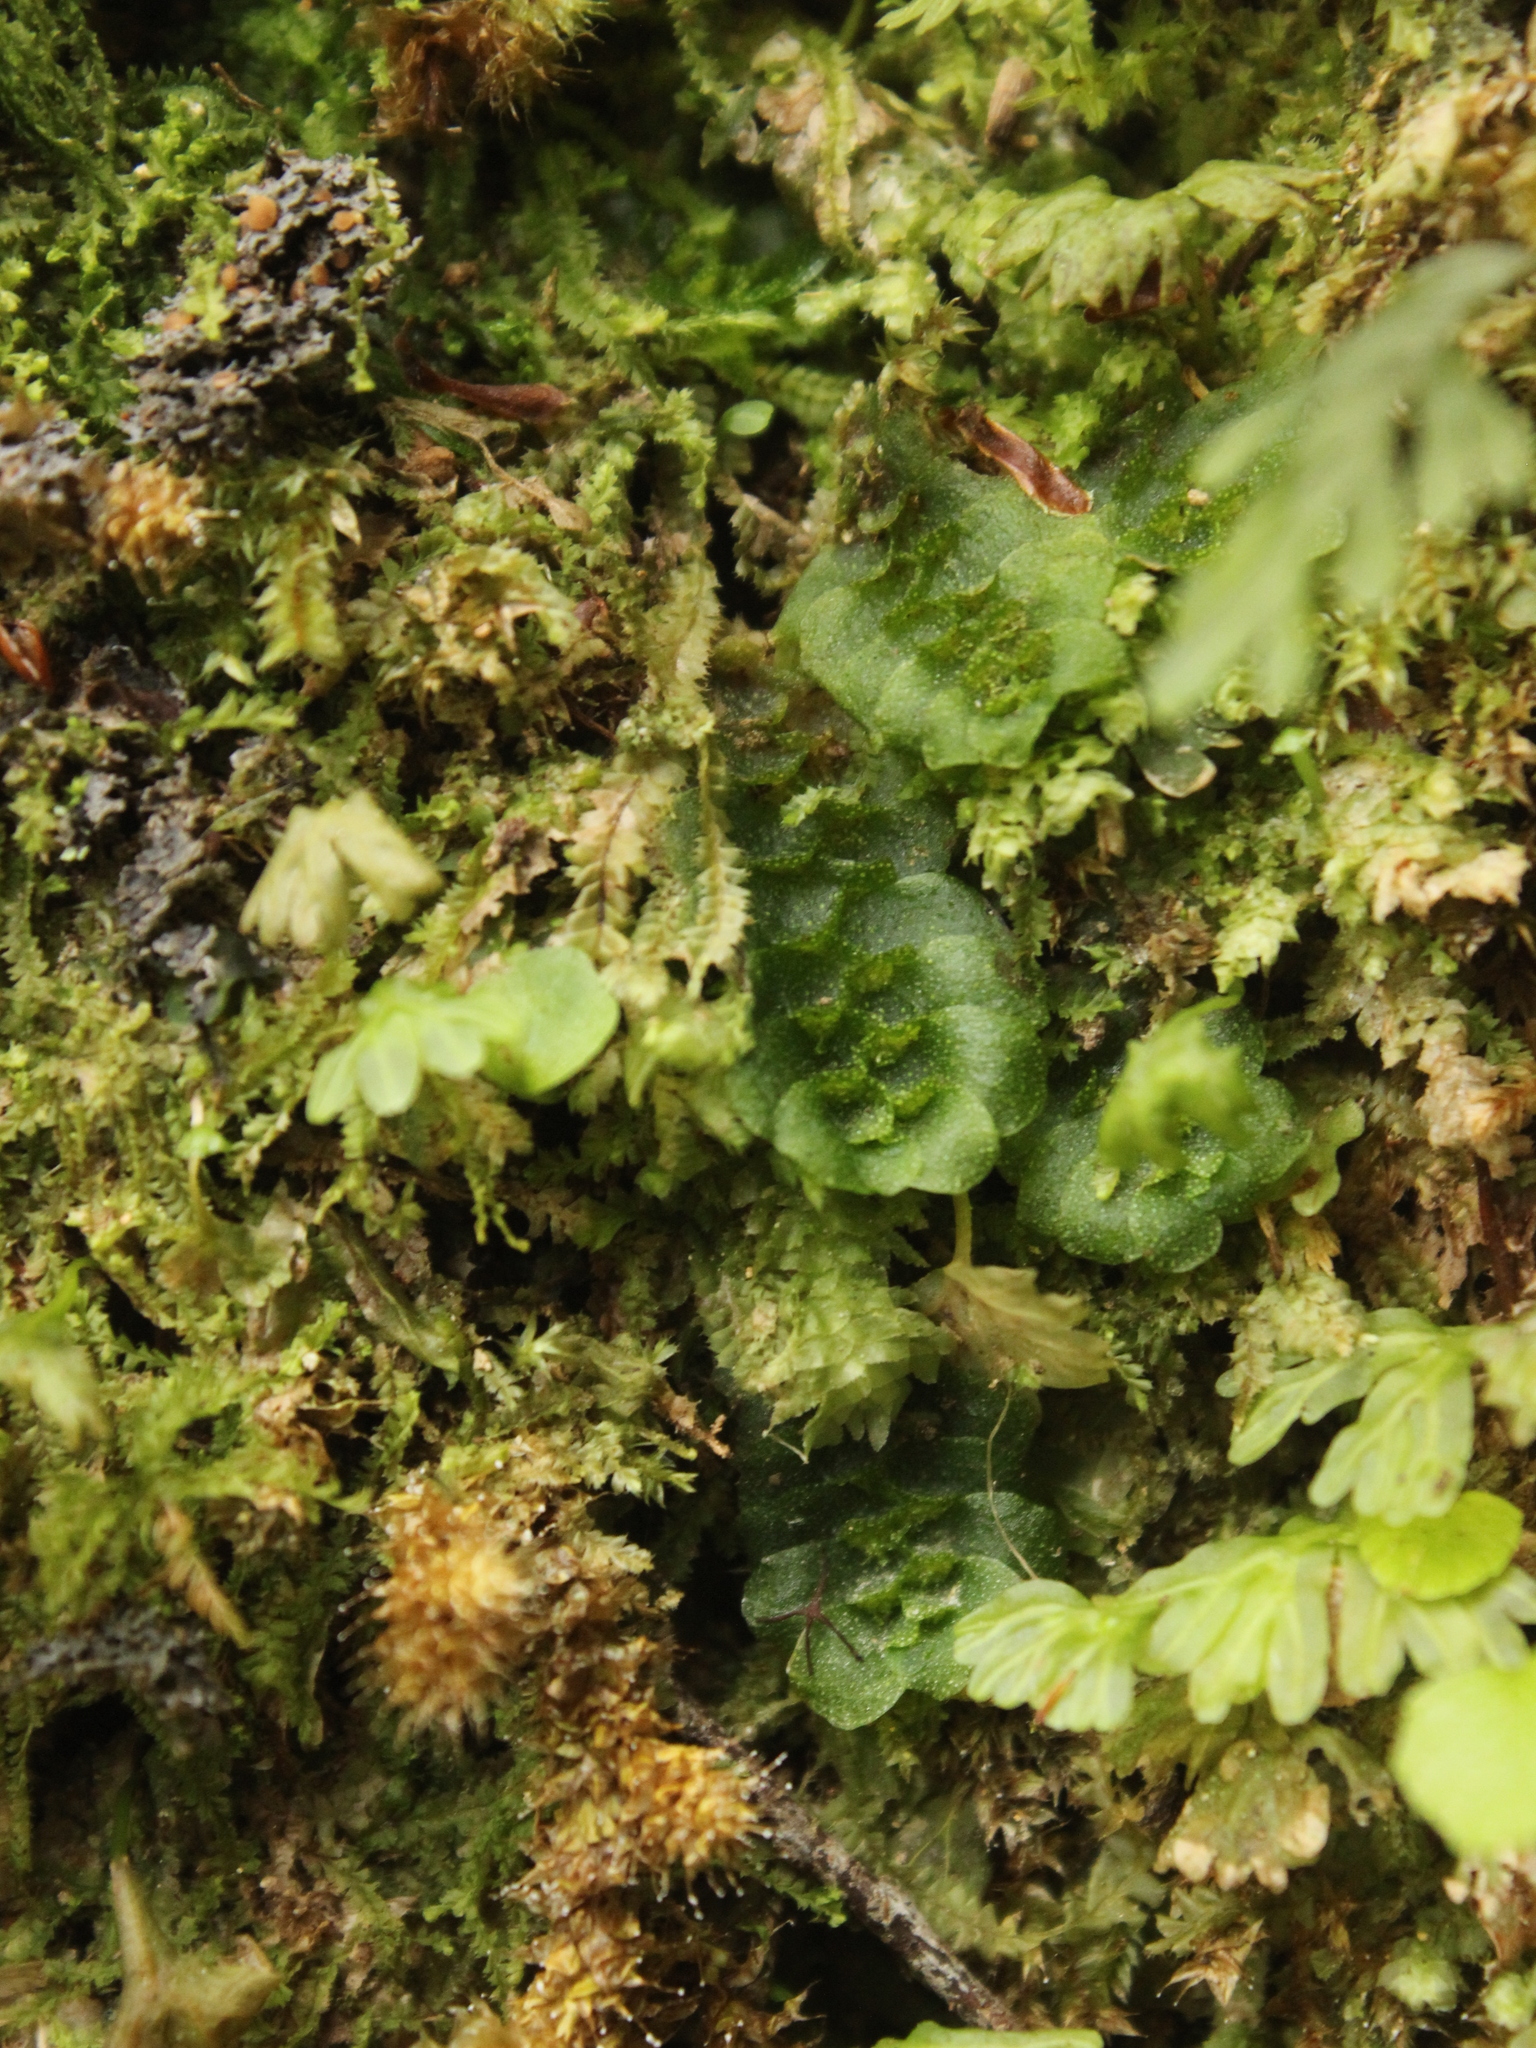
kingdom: Plantae
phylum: Marchantiophyta
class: Haplomitriopsida
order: Treubiales
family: Treubiaceae
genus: Treubia
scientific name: Treubia lacunosa
